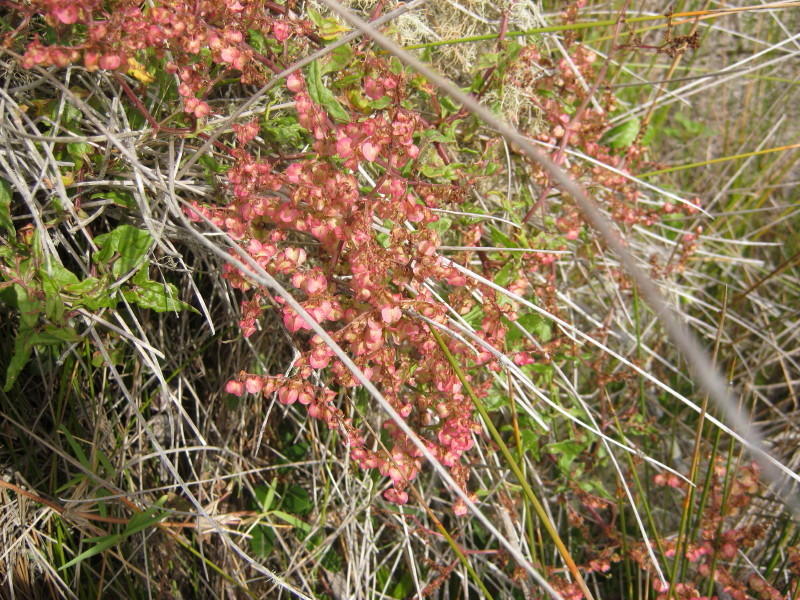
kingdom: Plantae
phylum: Tracheophyta
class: Magnoliopsida
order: Caryophyllales
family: Polygonaceae
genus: Rumex
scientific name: Rumex sagittatus
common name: Climbing dock
